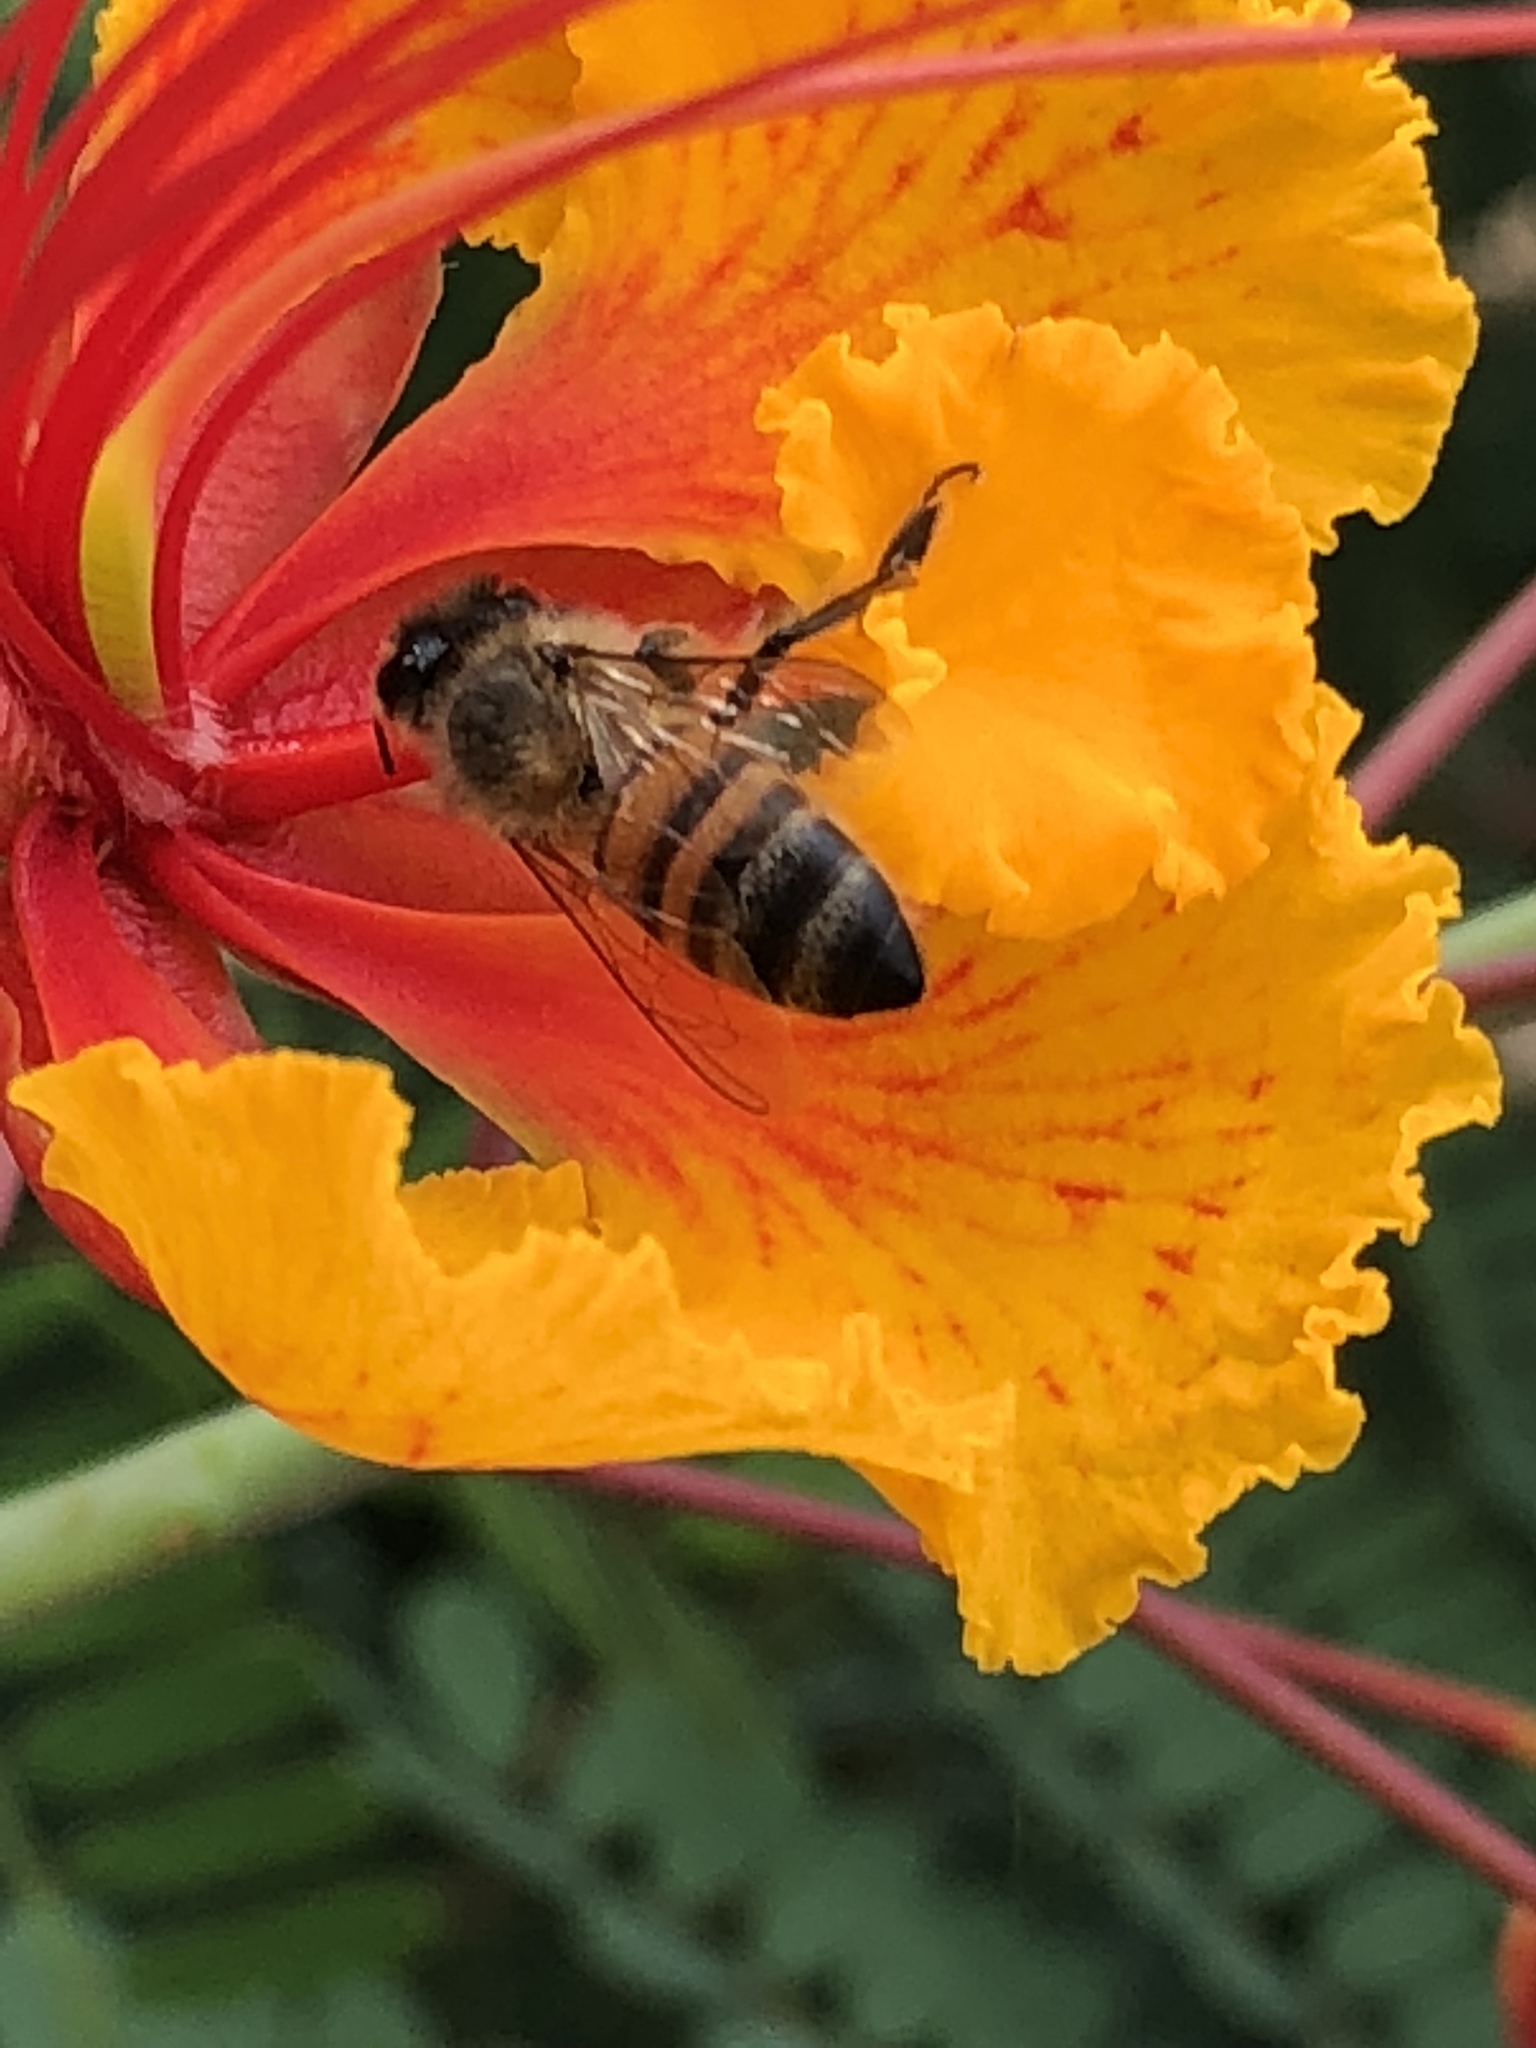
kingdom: Animalia
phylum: Arthropoda
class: Insecta
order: Hymenoptera
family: Apidae
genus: Apis
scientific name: Apis mellifera
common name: Honey bee
